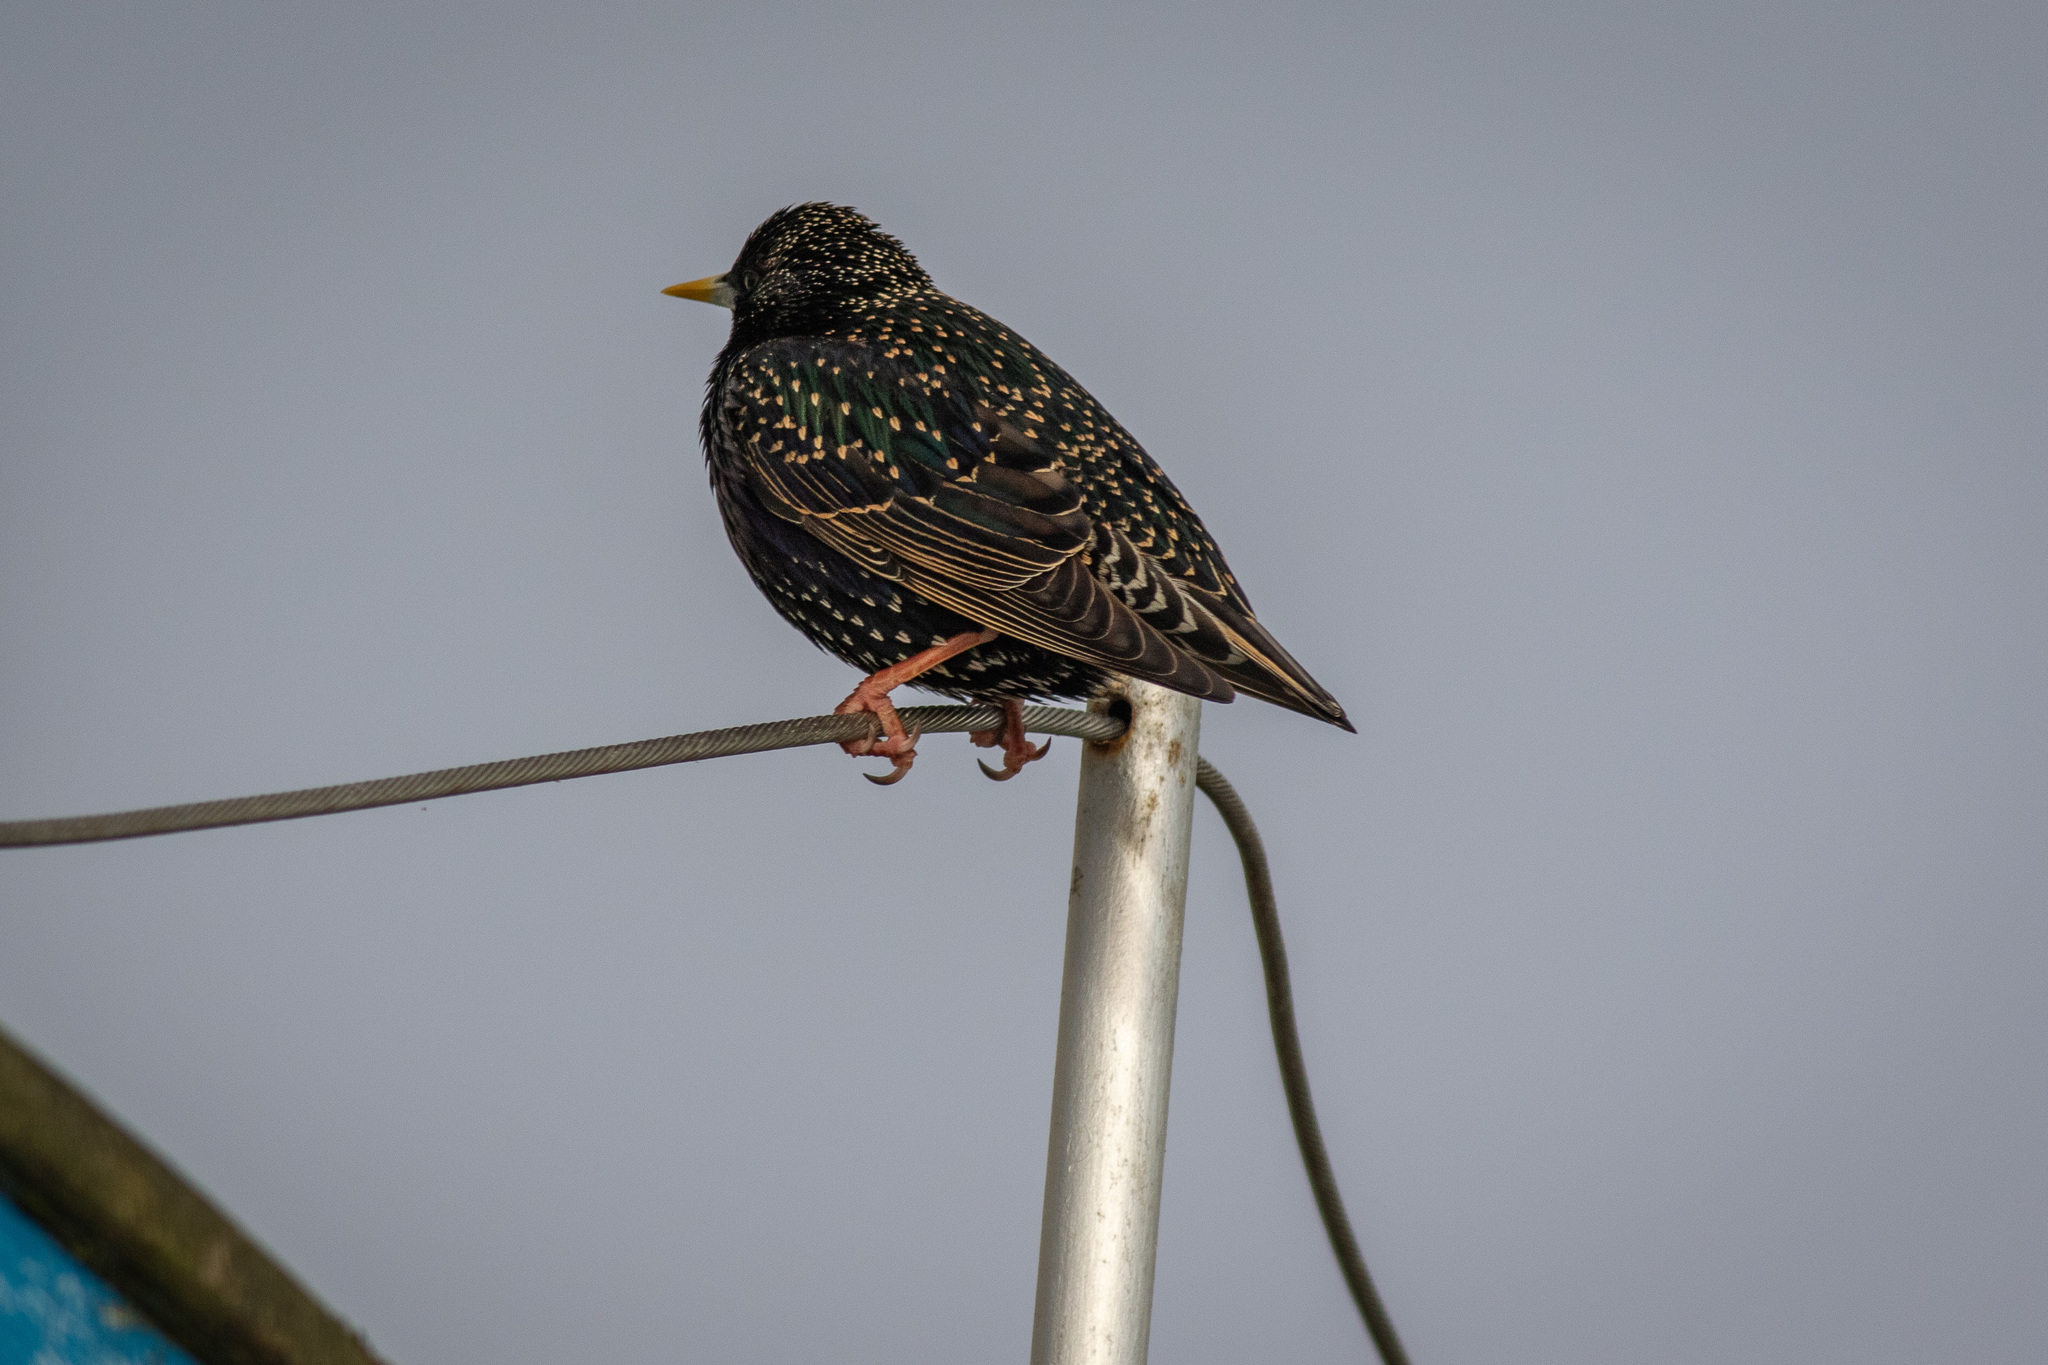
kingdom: Animalia
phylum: Chordata
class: Aves
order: Passeriformes
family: Sturnidae
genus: Sturnus
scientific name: Sturnus vulgaris
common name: Common starling
